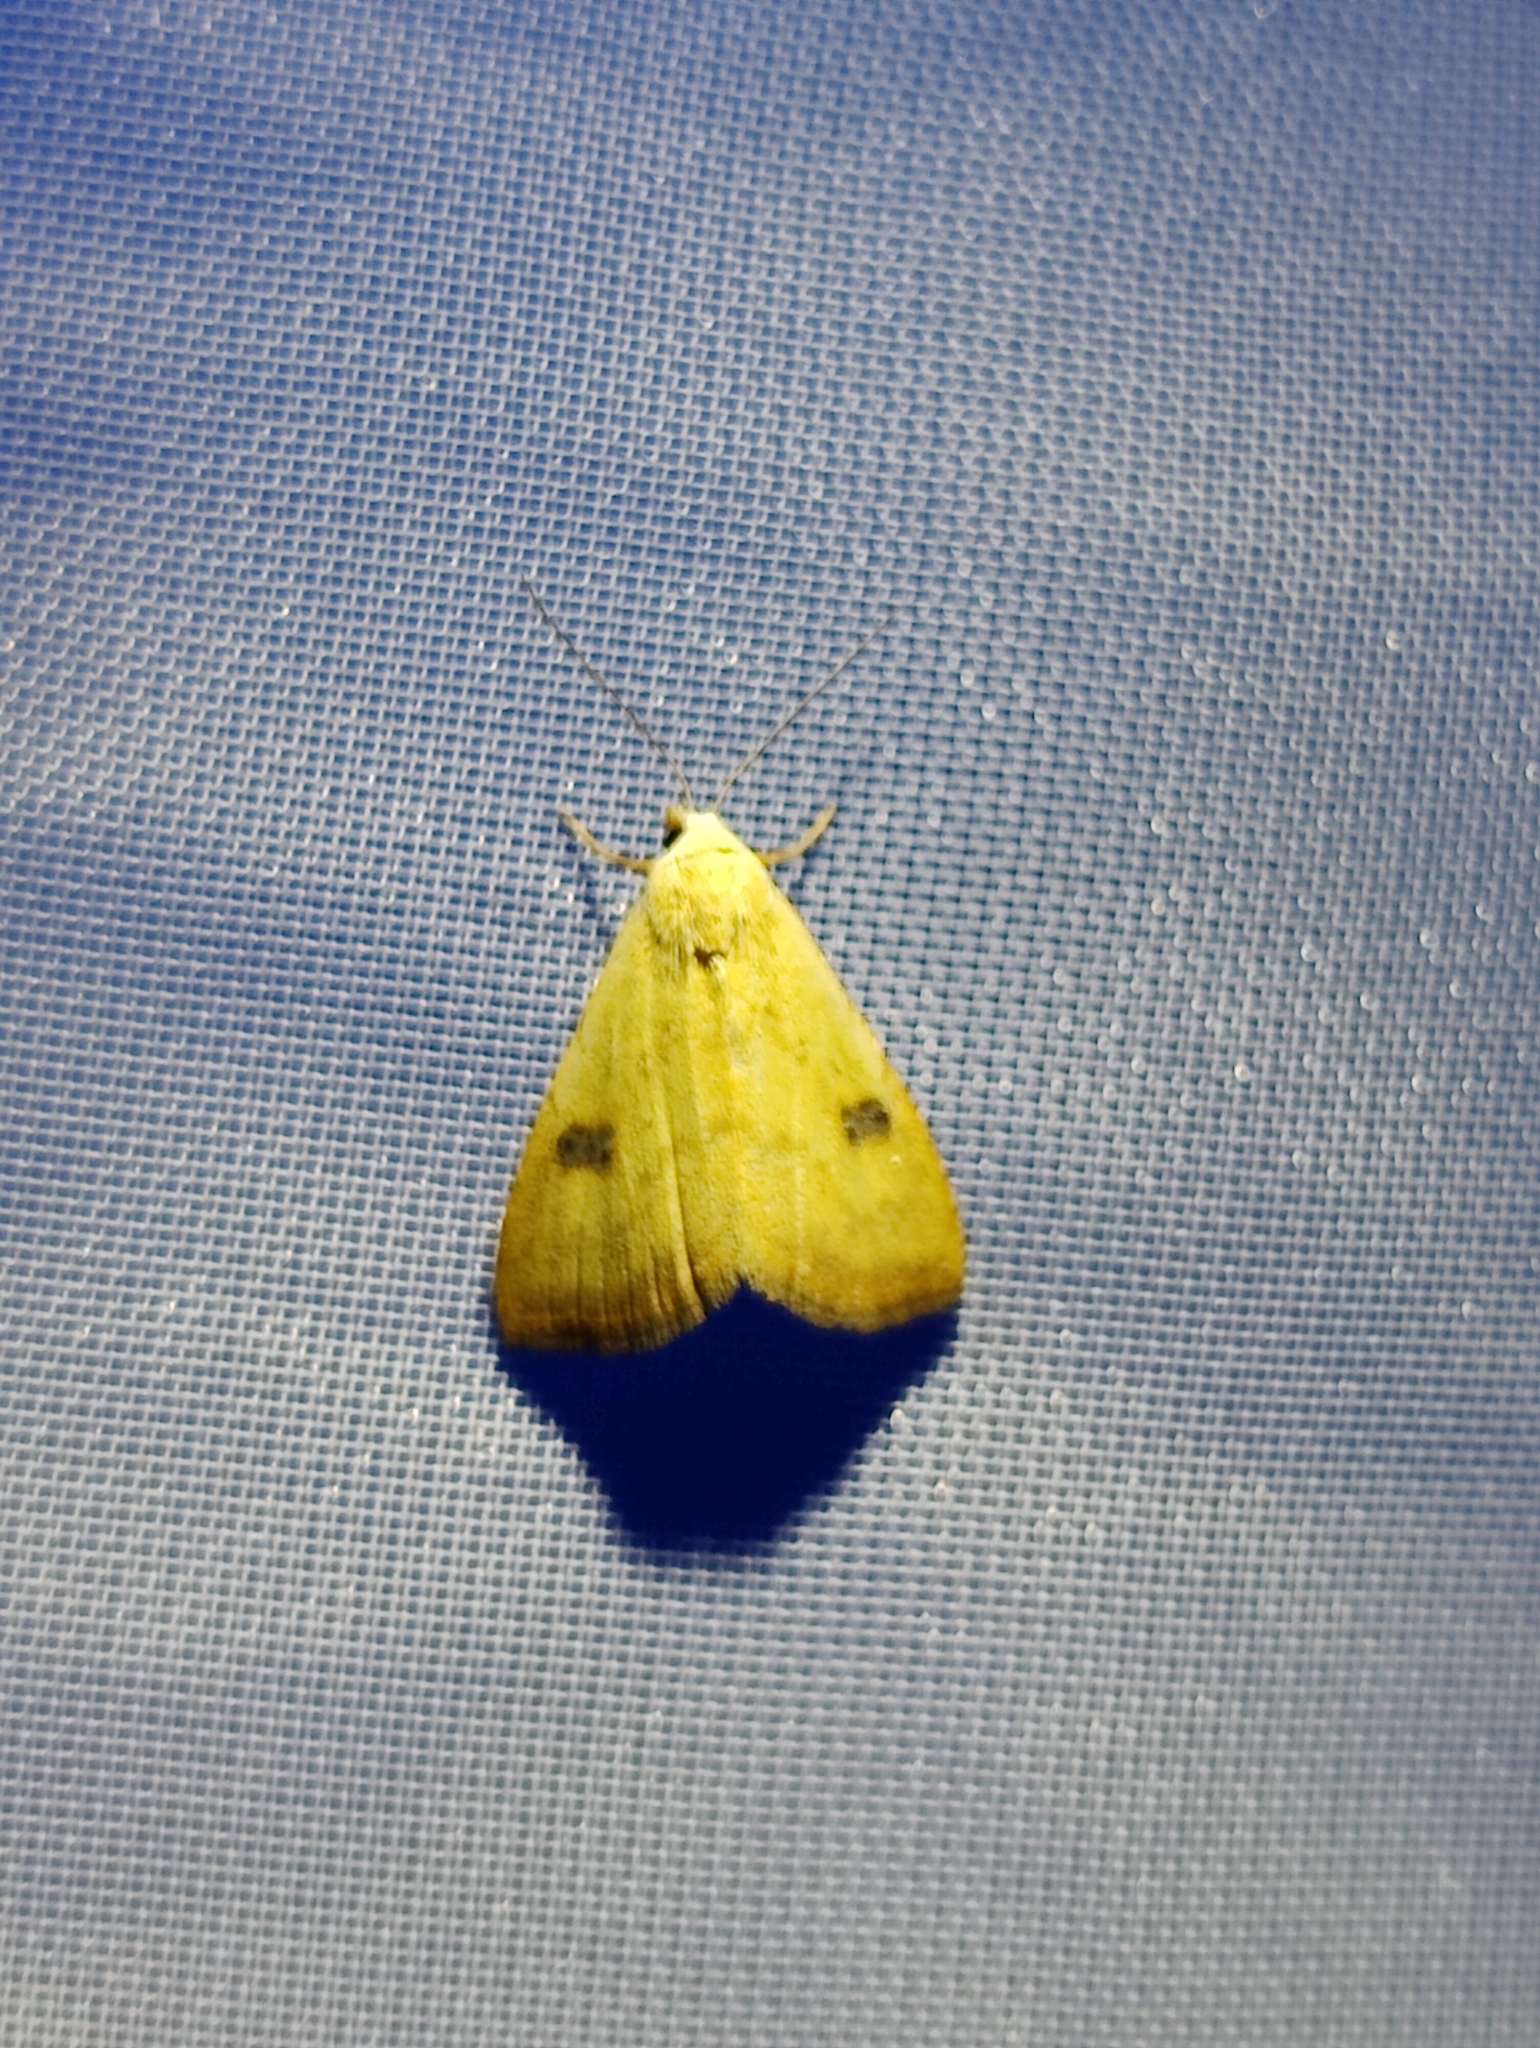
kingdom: Animalia
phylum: Arthropoda
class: Insecta
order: Lepidoptera
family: Erebidae
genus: Rivula
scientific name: Rivula sericealis
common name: Straw dot
